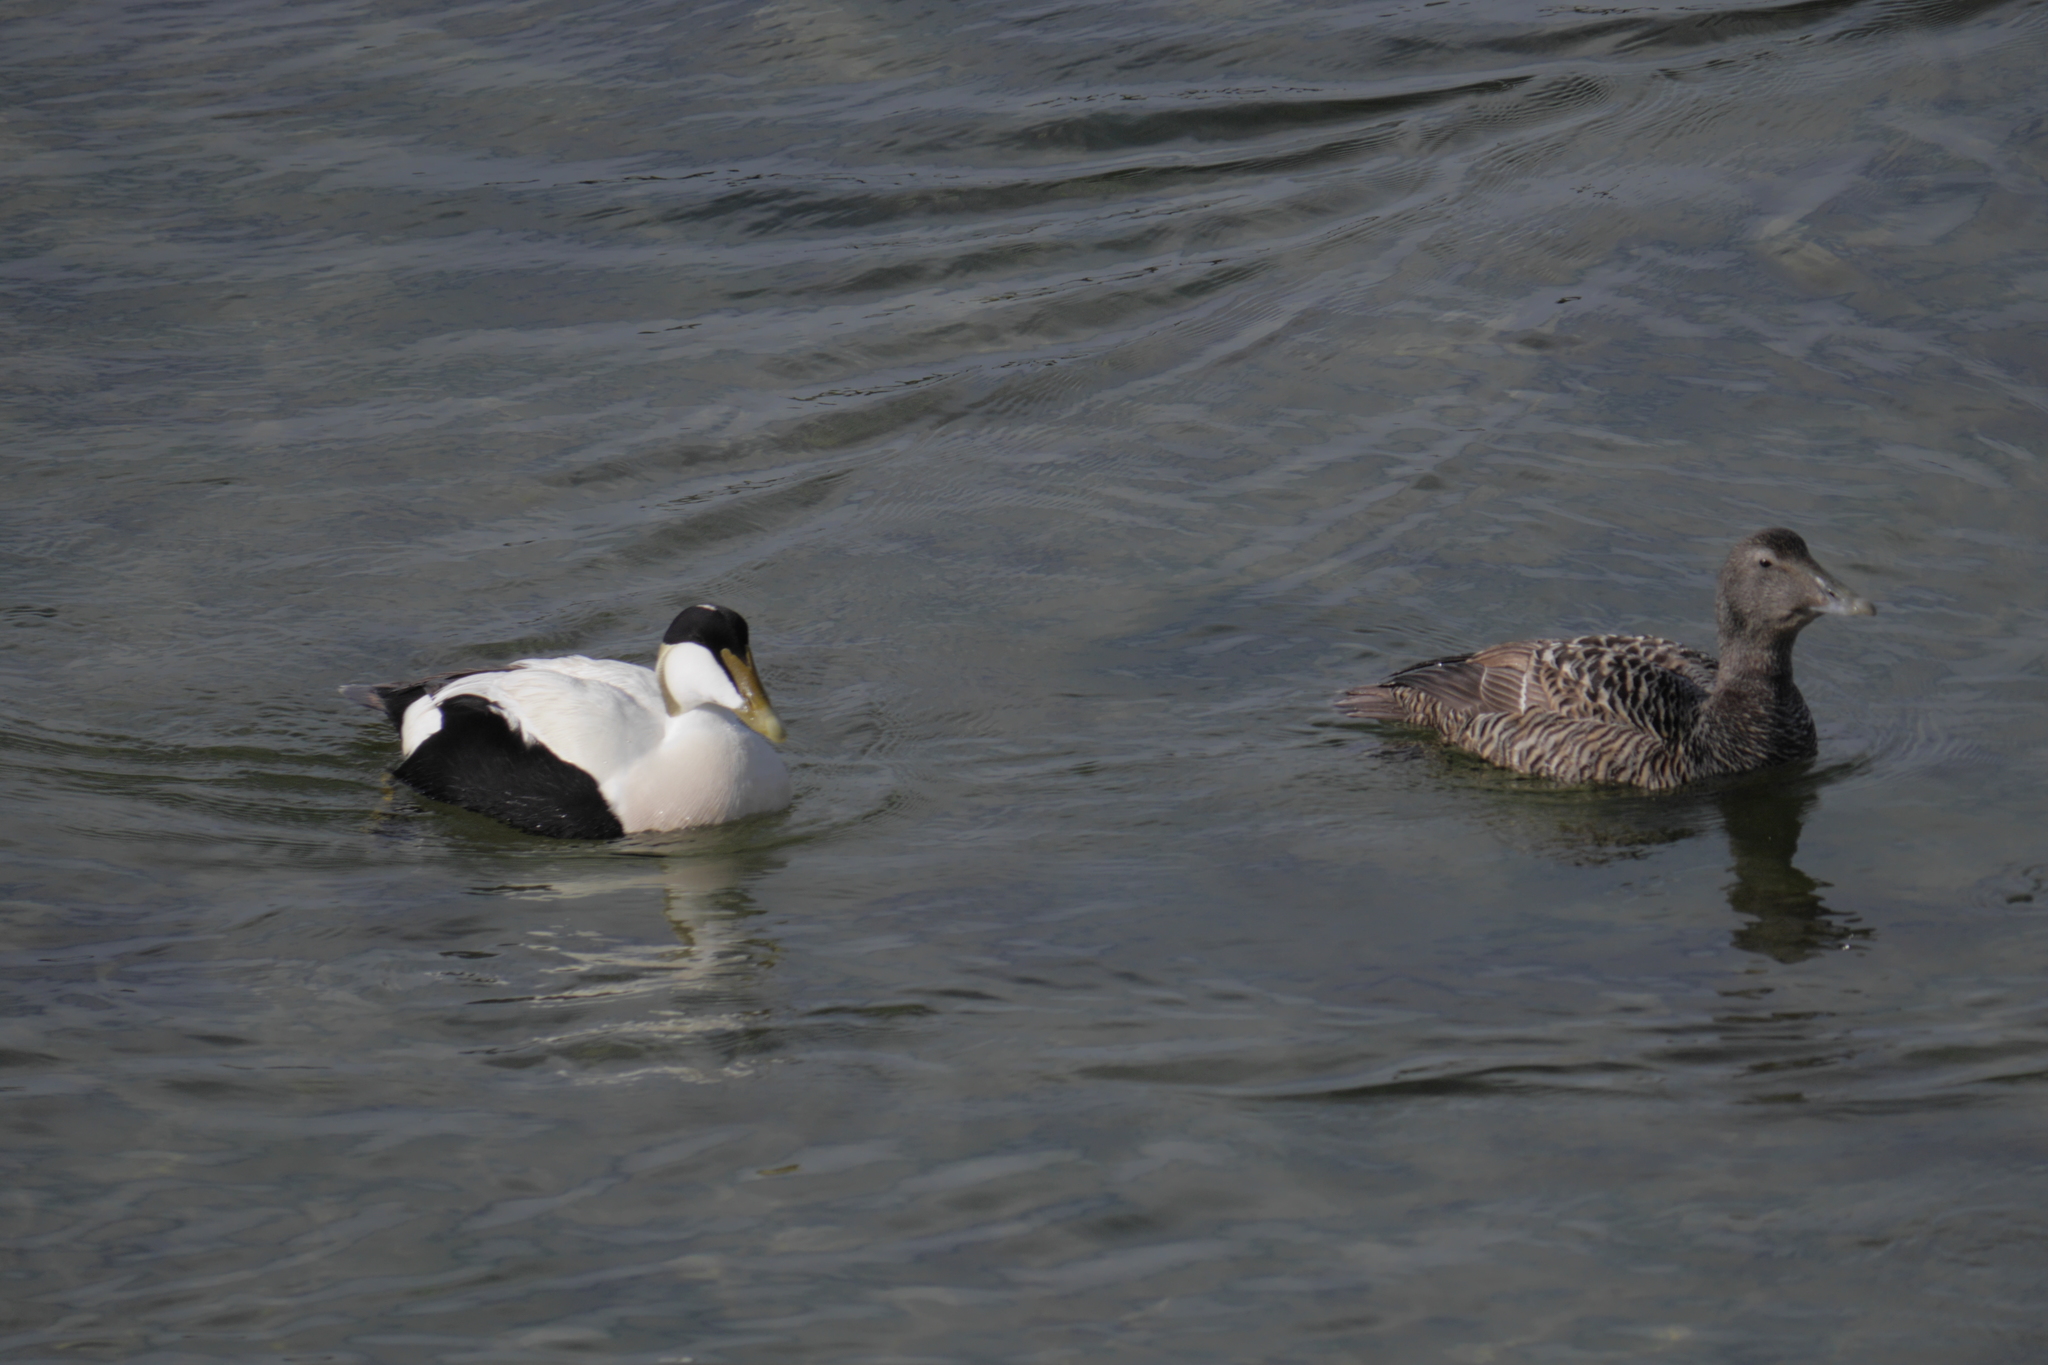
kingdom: Animalia
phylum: Chordata
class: Aves
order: Anseriformes
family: Anatidae
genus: Somateria
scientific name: Somateria mollissima
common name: Common eider
